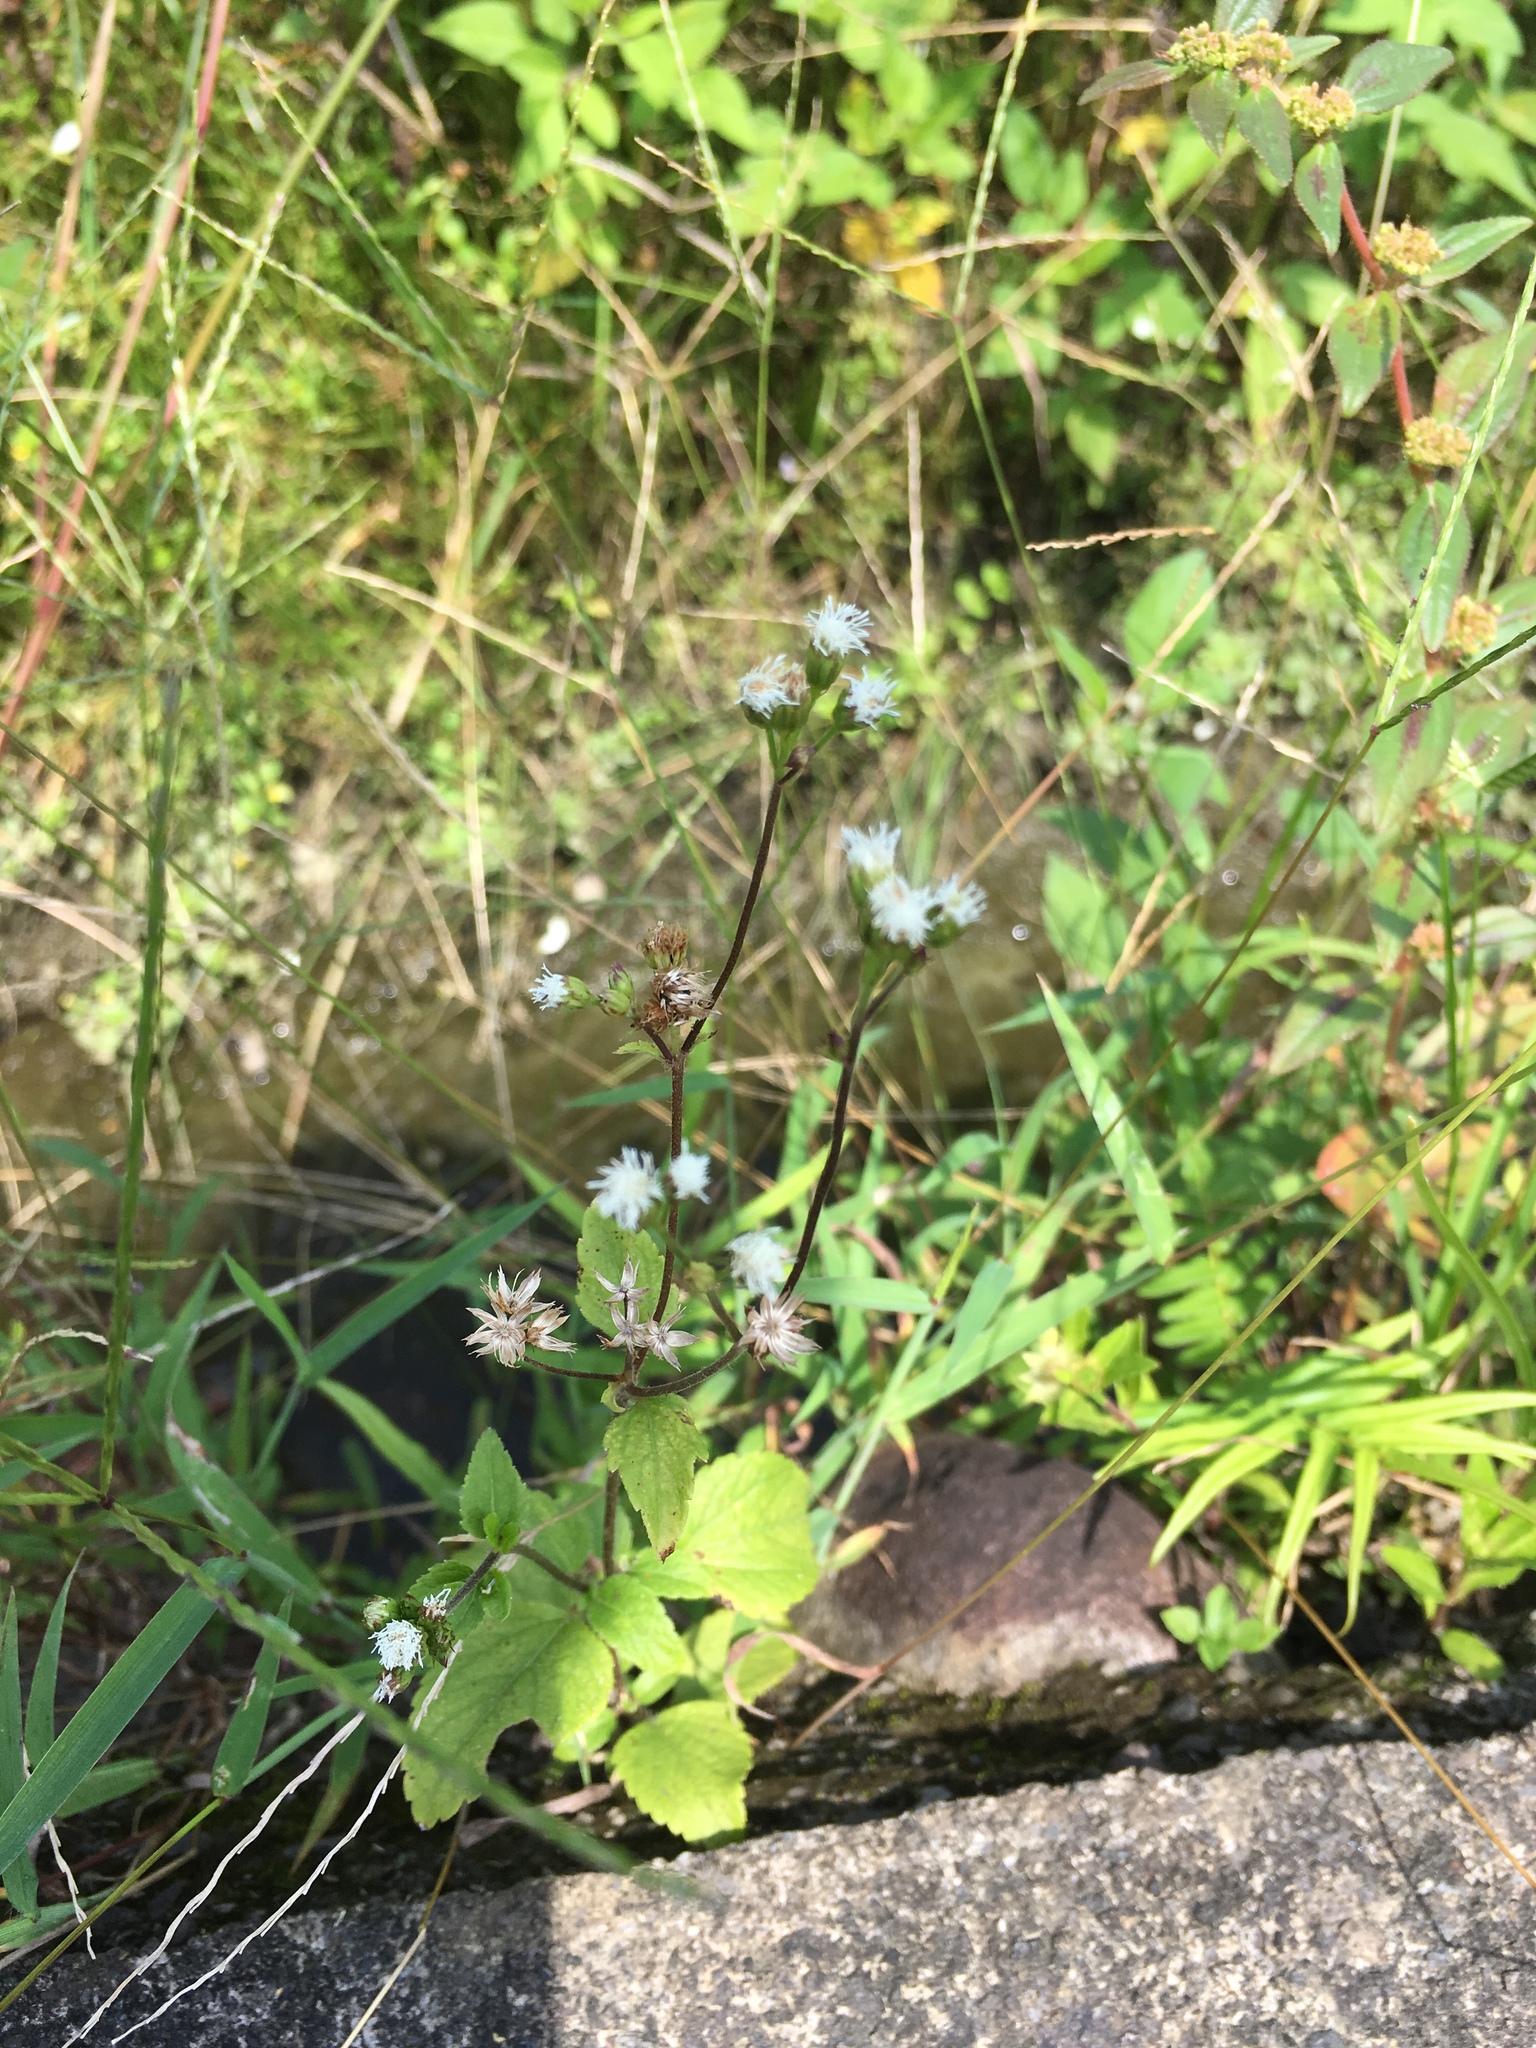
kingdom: Plantae
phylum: Tracheophyta
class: Magnoliopsida
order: Asterales
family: Asteraceae
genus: Ageratum
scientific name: Ageratum conyzoides
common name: Tropical whiteweed
